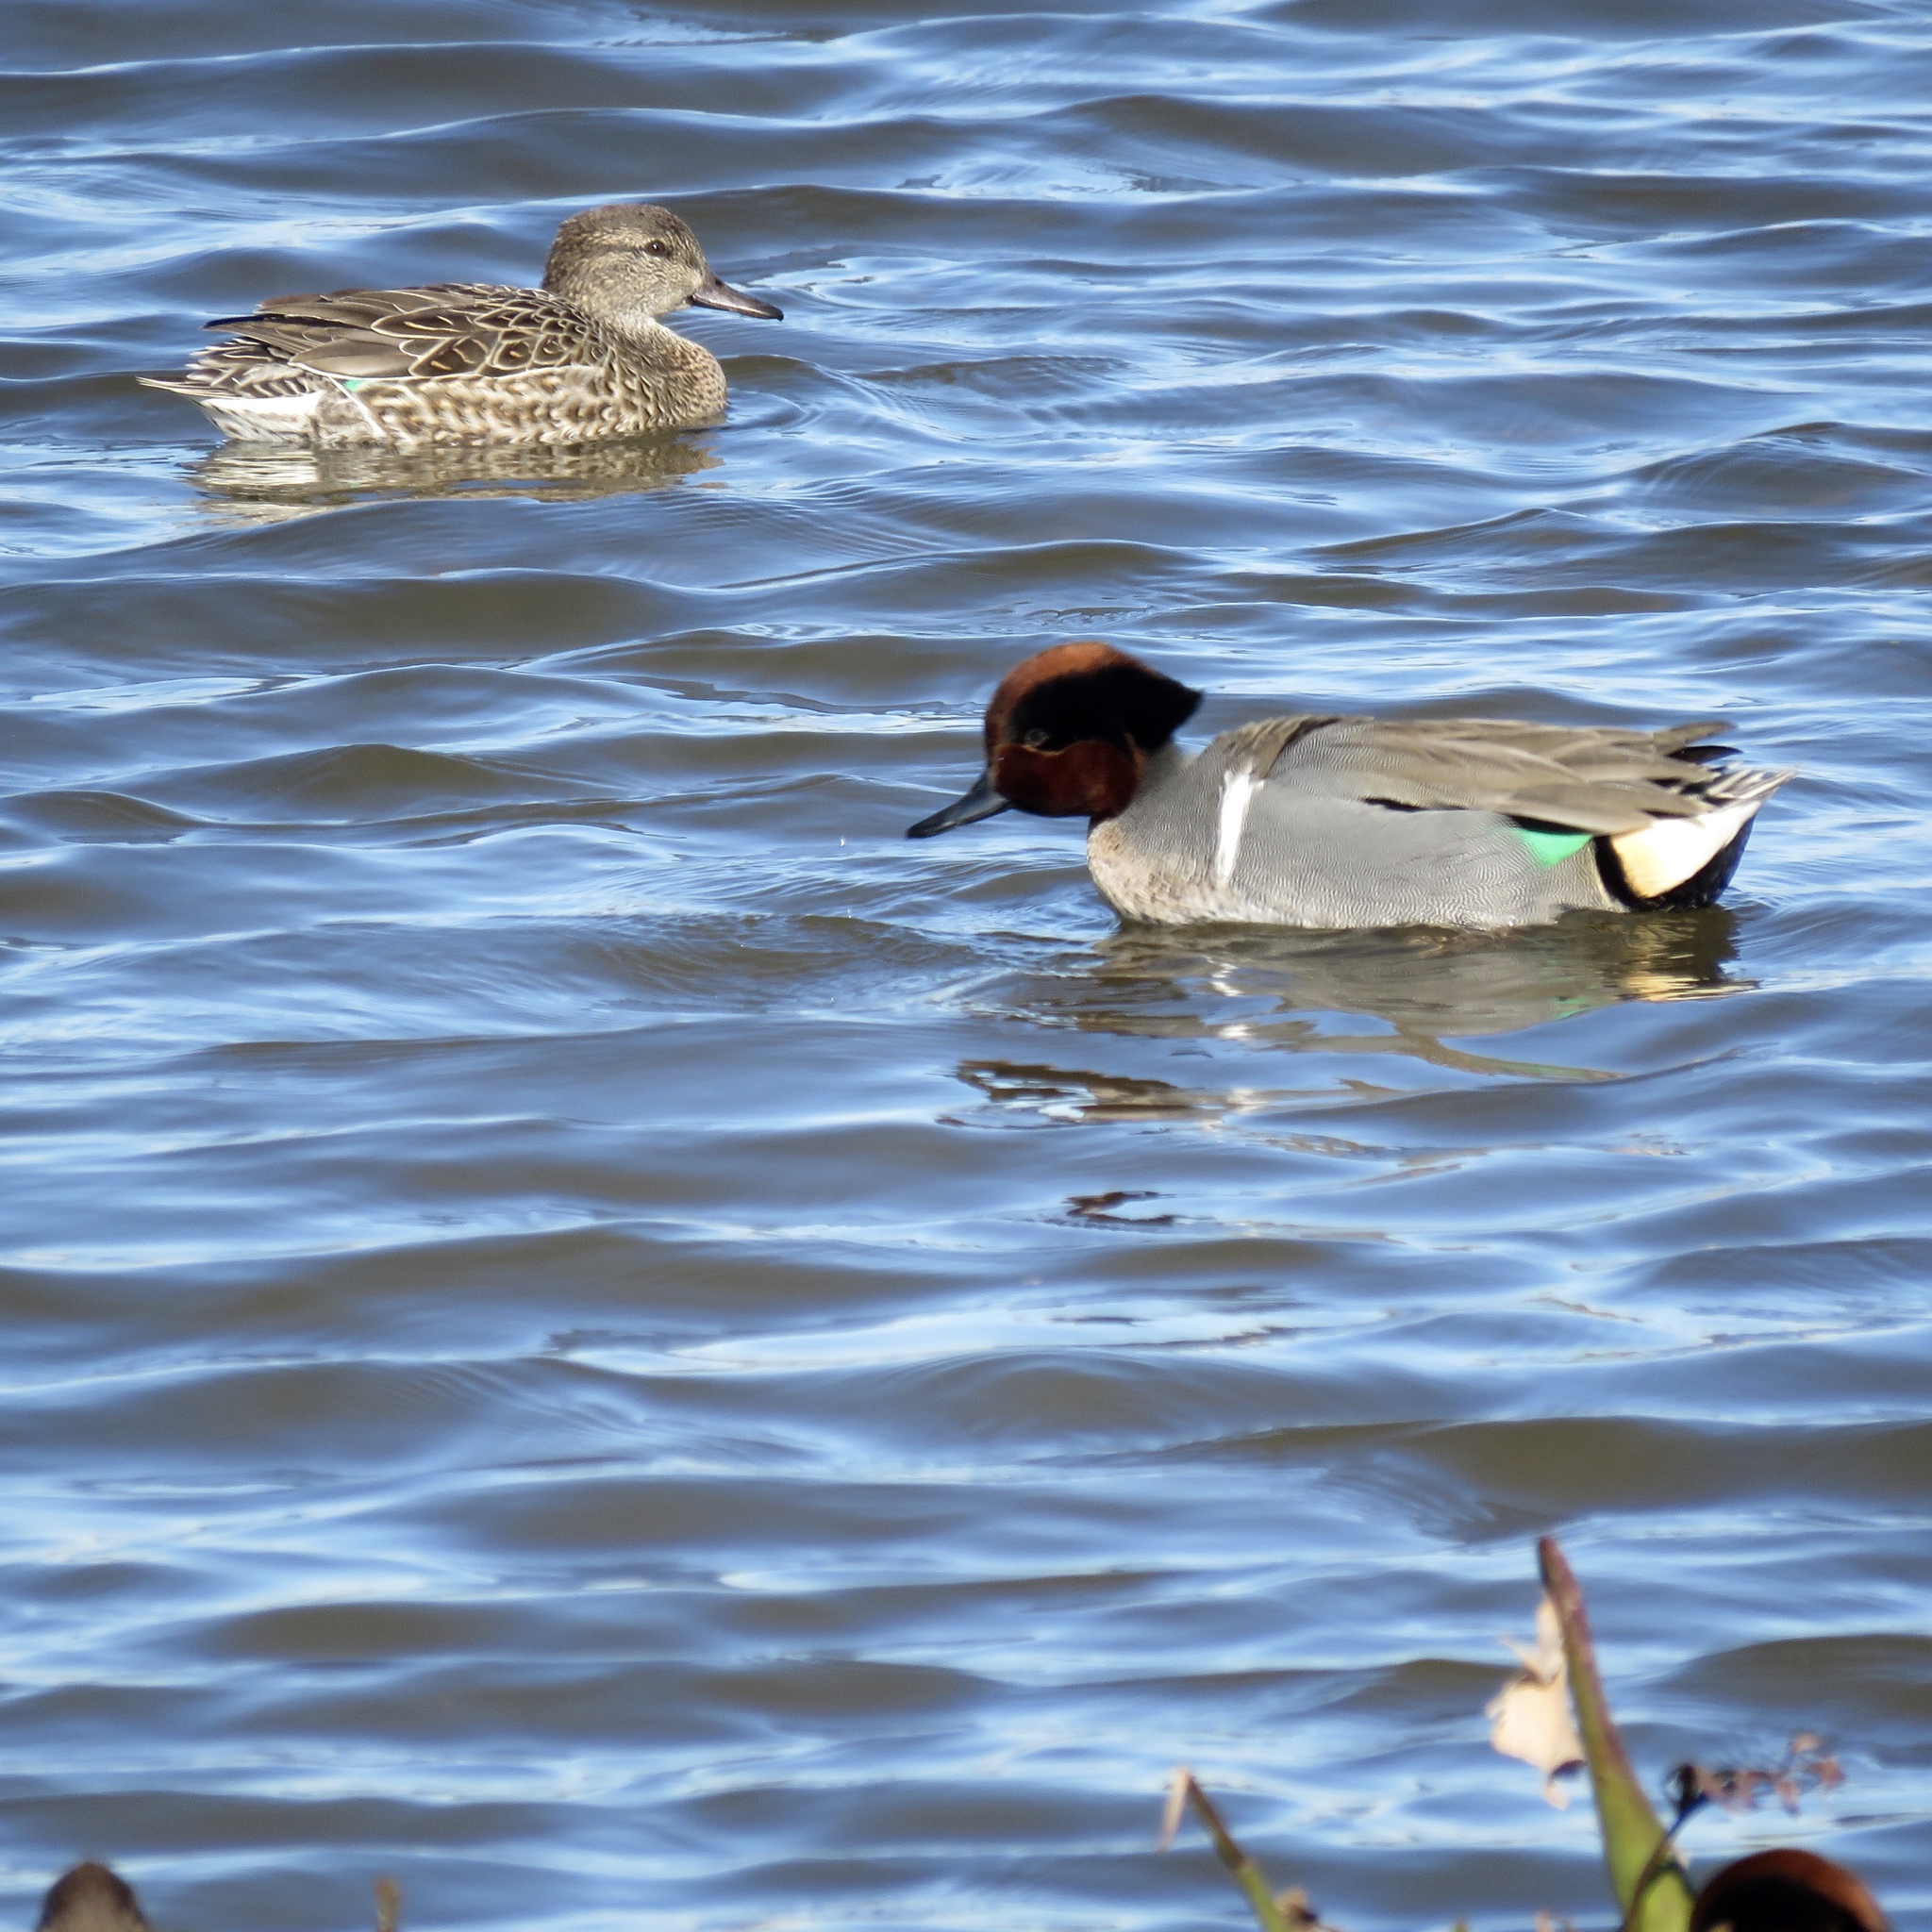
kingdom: Animalia
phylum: Chordata
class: Aves
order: Anseriformes
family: Anatidae
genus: Anas
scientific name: Anas crecca
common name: Eurasian teal
